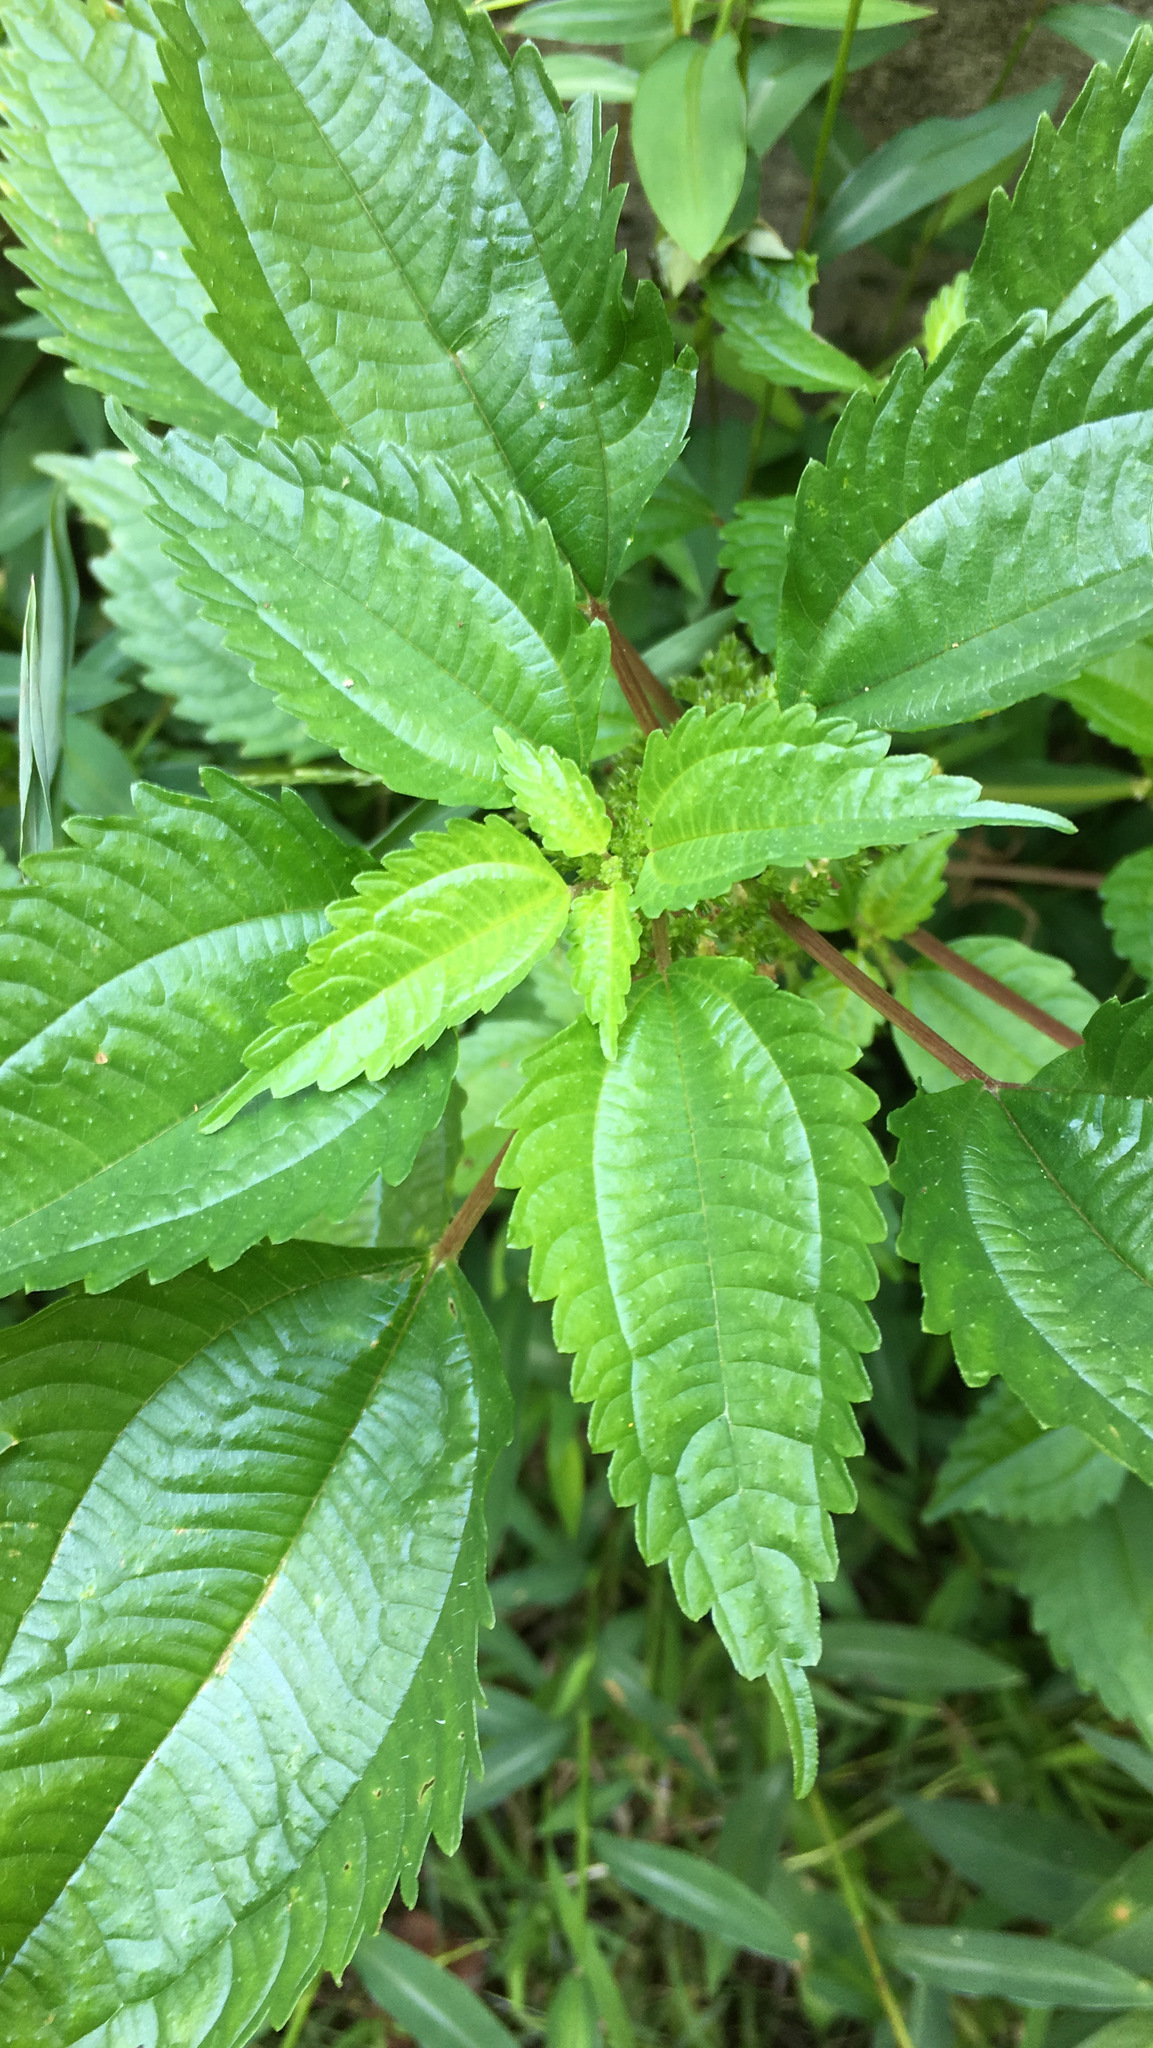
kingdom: Plantae
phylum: Tracheophyta
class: Magnoliopsida
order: Rosales
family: Urticaceae
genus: Pilea
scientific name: Pilea pumila
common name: Clearweed
